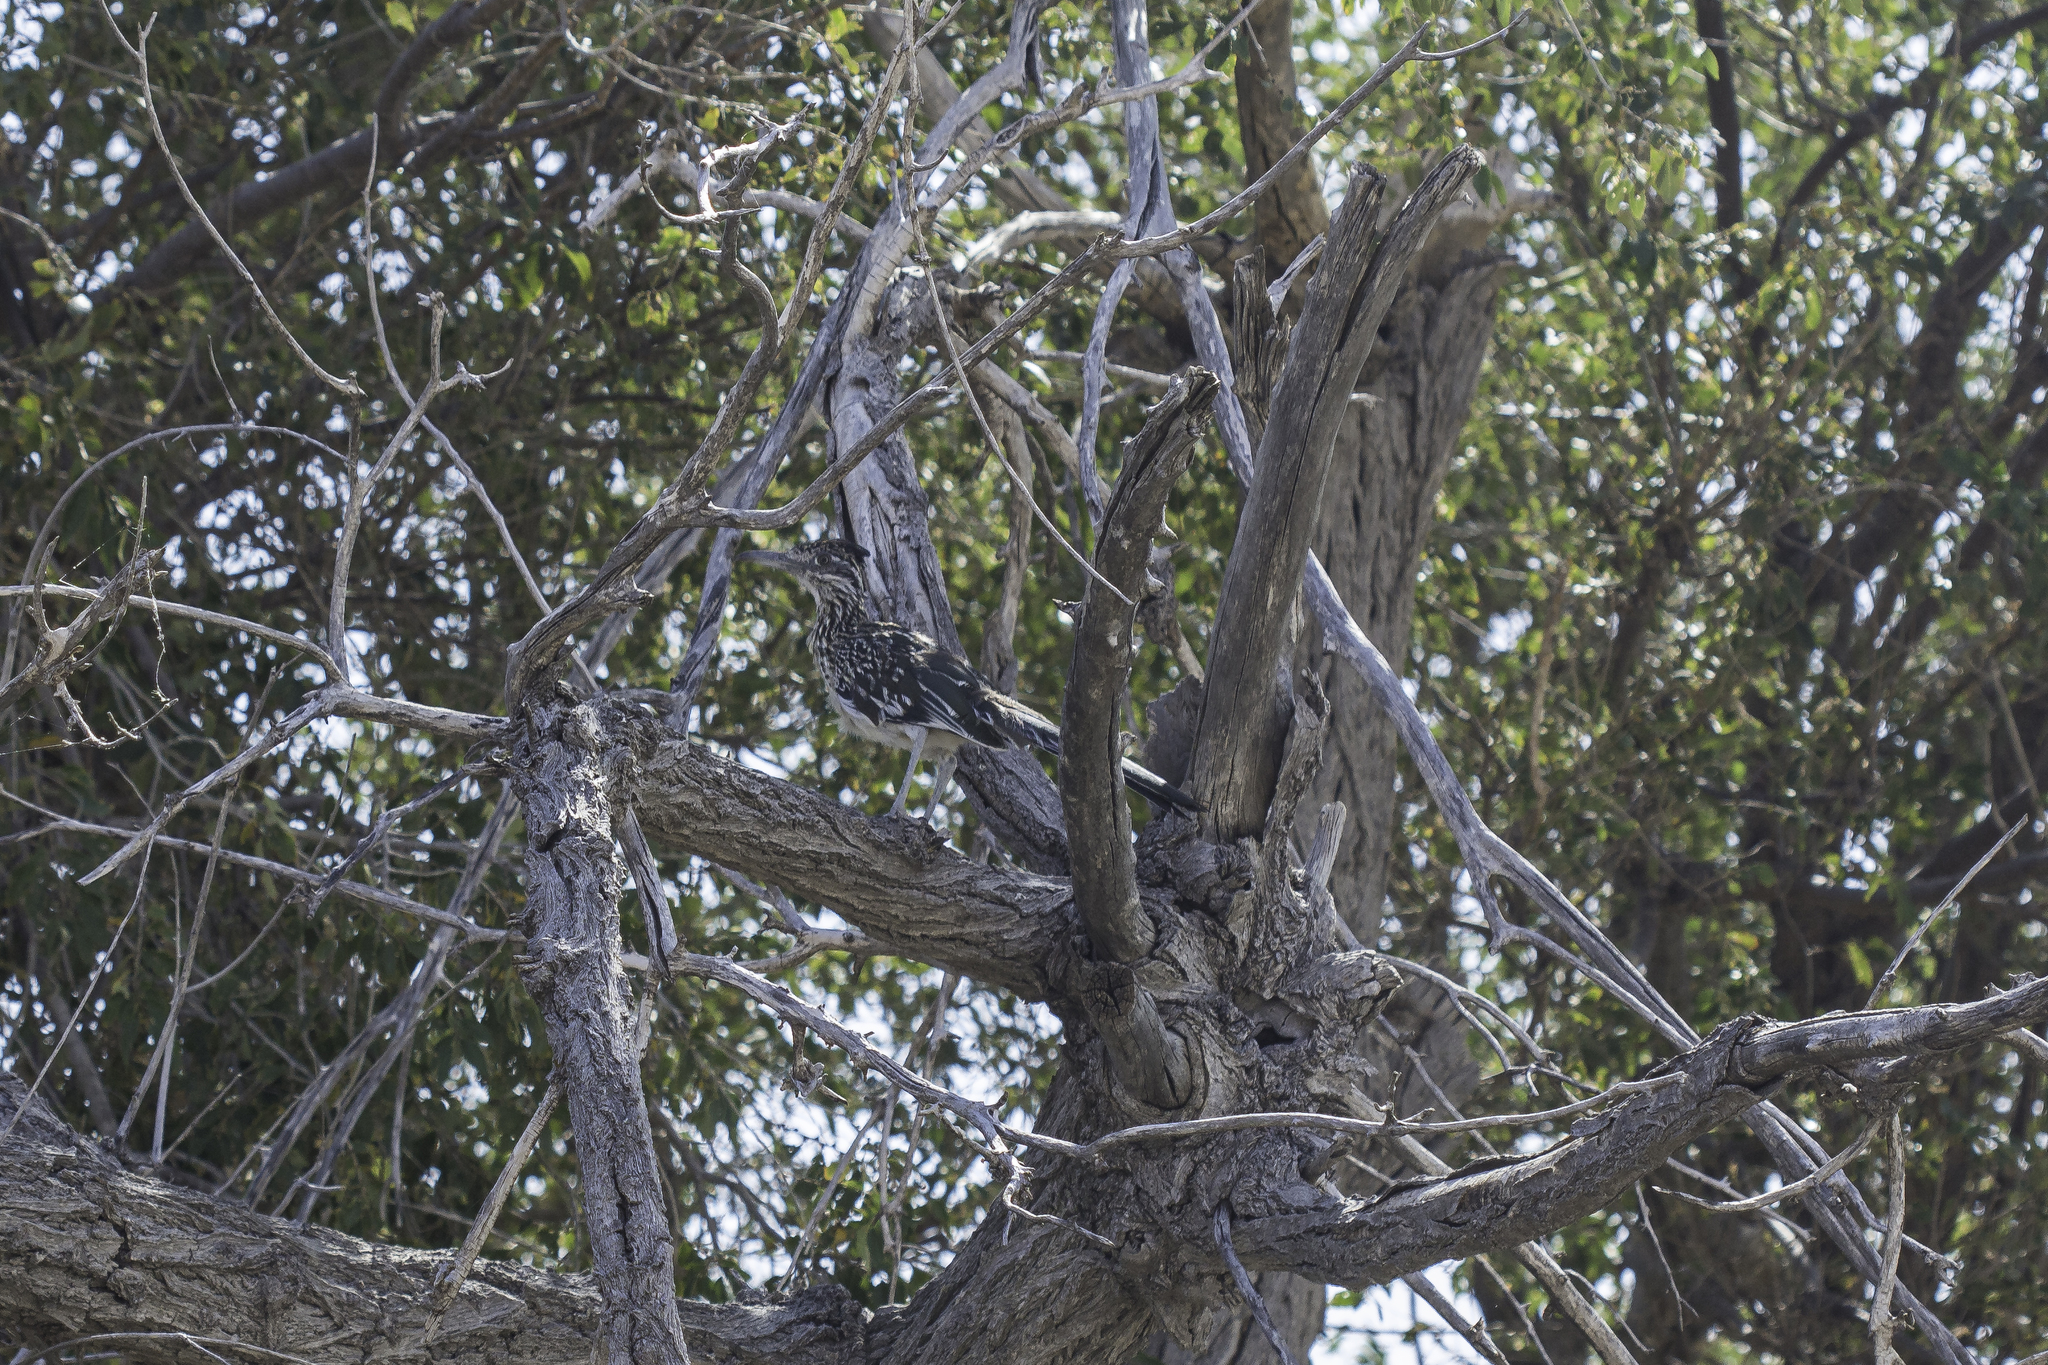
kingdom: Animalia
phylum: Chordata
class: Aves
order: Cuculiformes
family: Cuculidae
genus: Geococcyx
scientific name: Geococcyx californianus
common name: Greater roadrunner
